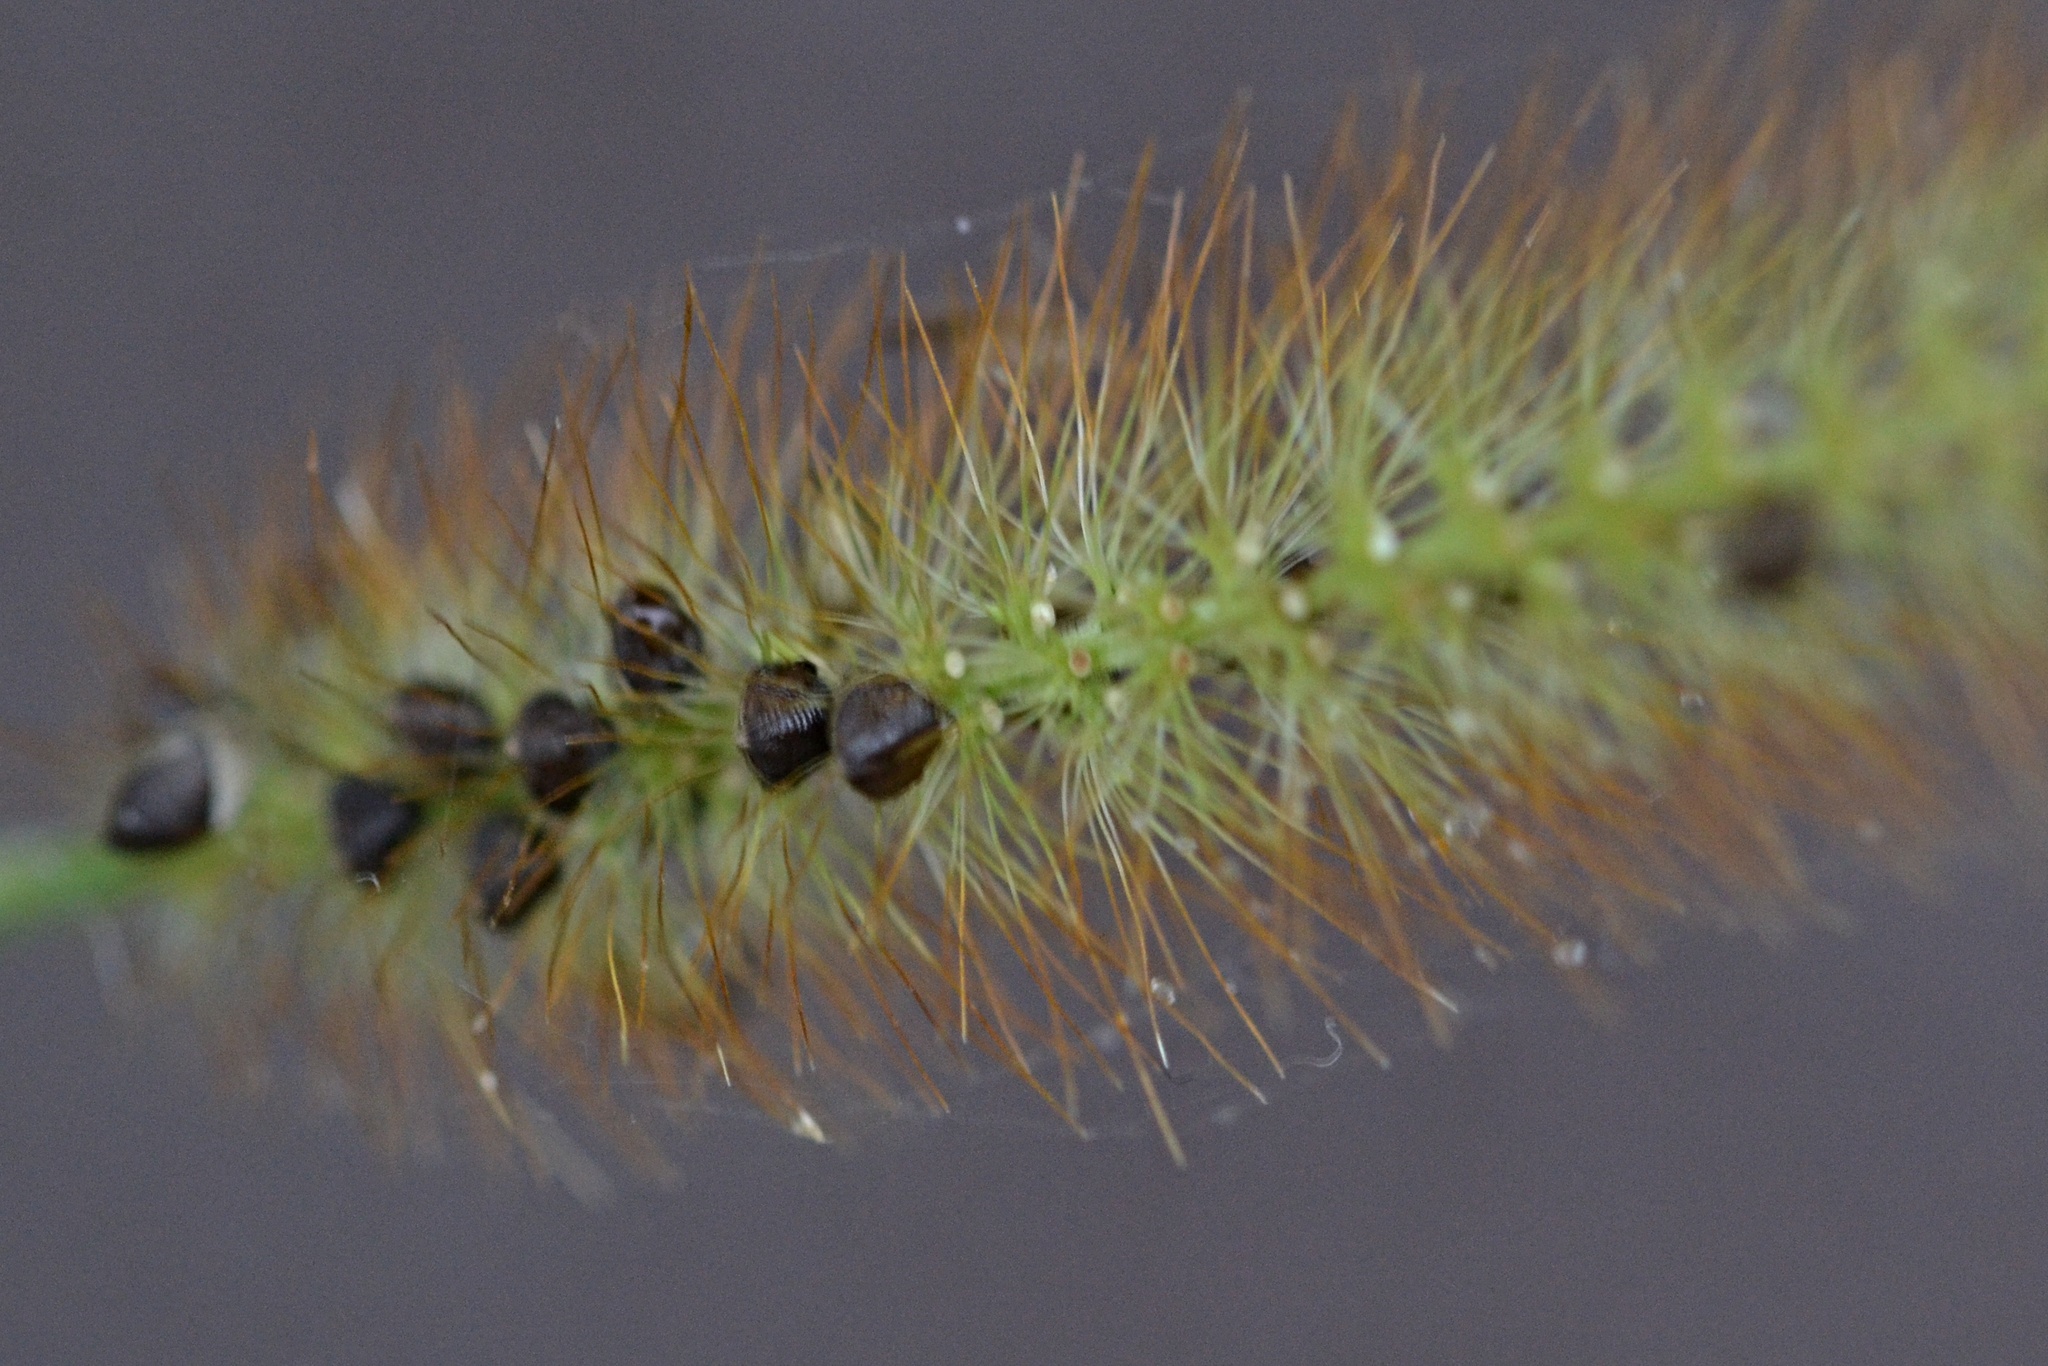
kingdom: Plantae
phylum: Tracheophyta
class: Liliopsida
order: Poales
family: Poaceae
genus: Setaria
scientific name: Setaria pumila
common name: Yellow bristle-grass
